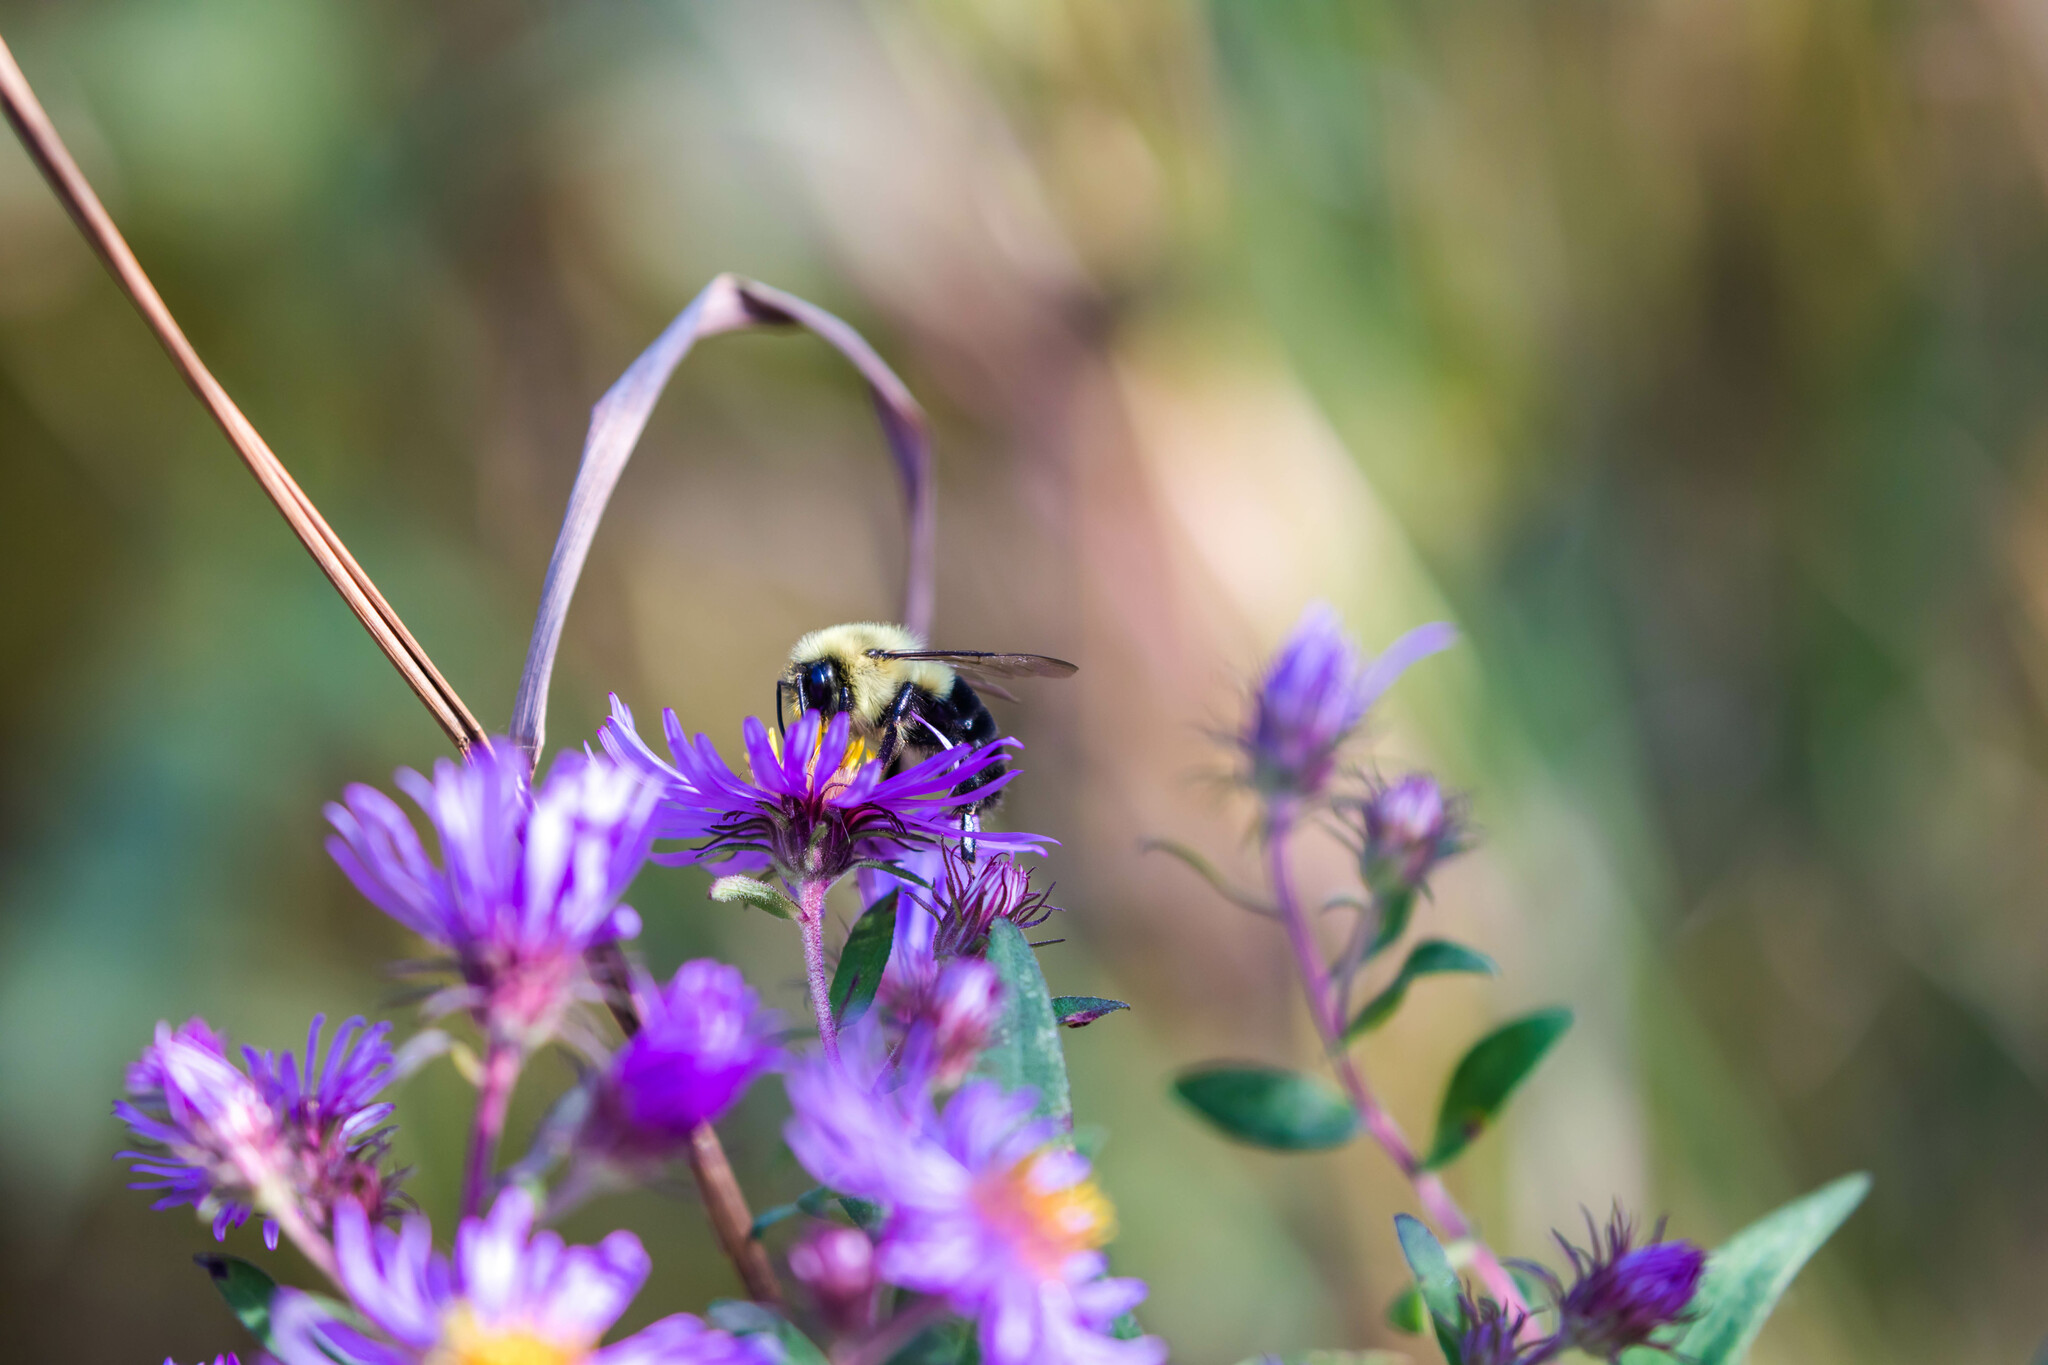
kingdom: Animalia
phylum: Arthropoda
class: Insecta
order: Hymenoptera
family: Apidae
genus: Bombus
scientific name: Bombus impatiens
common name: Common eastern bumble bee
